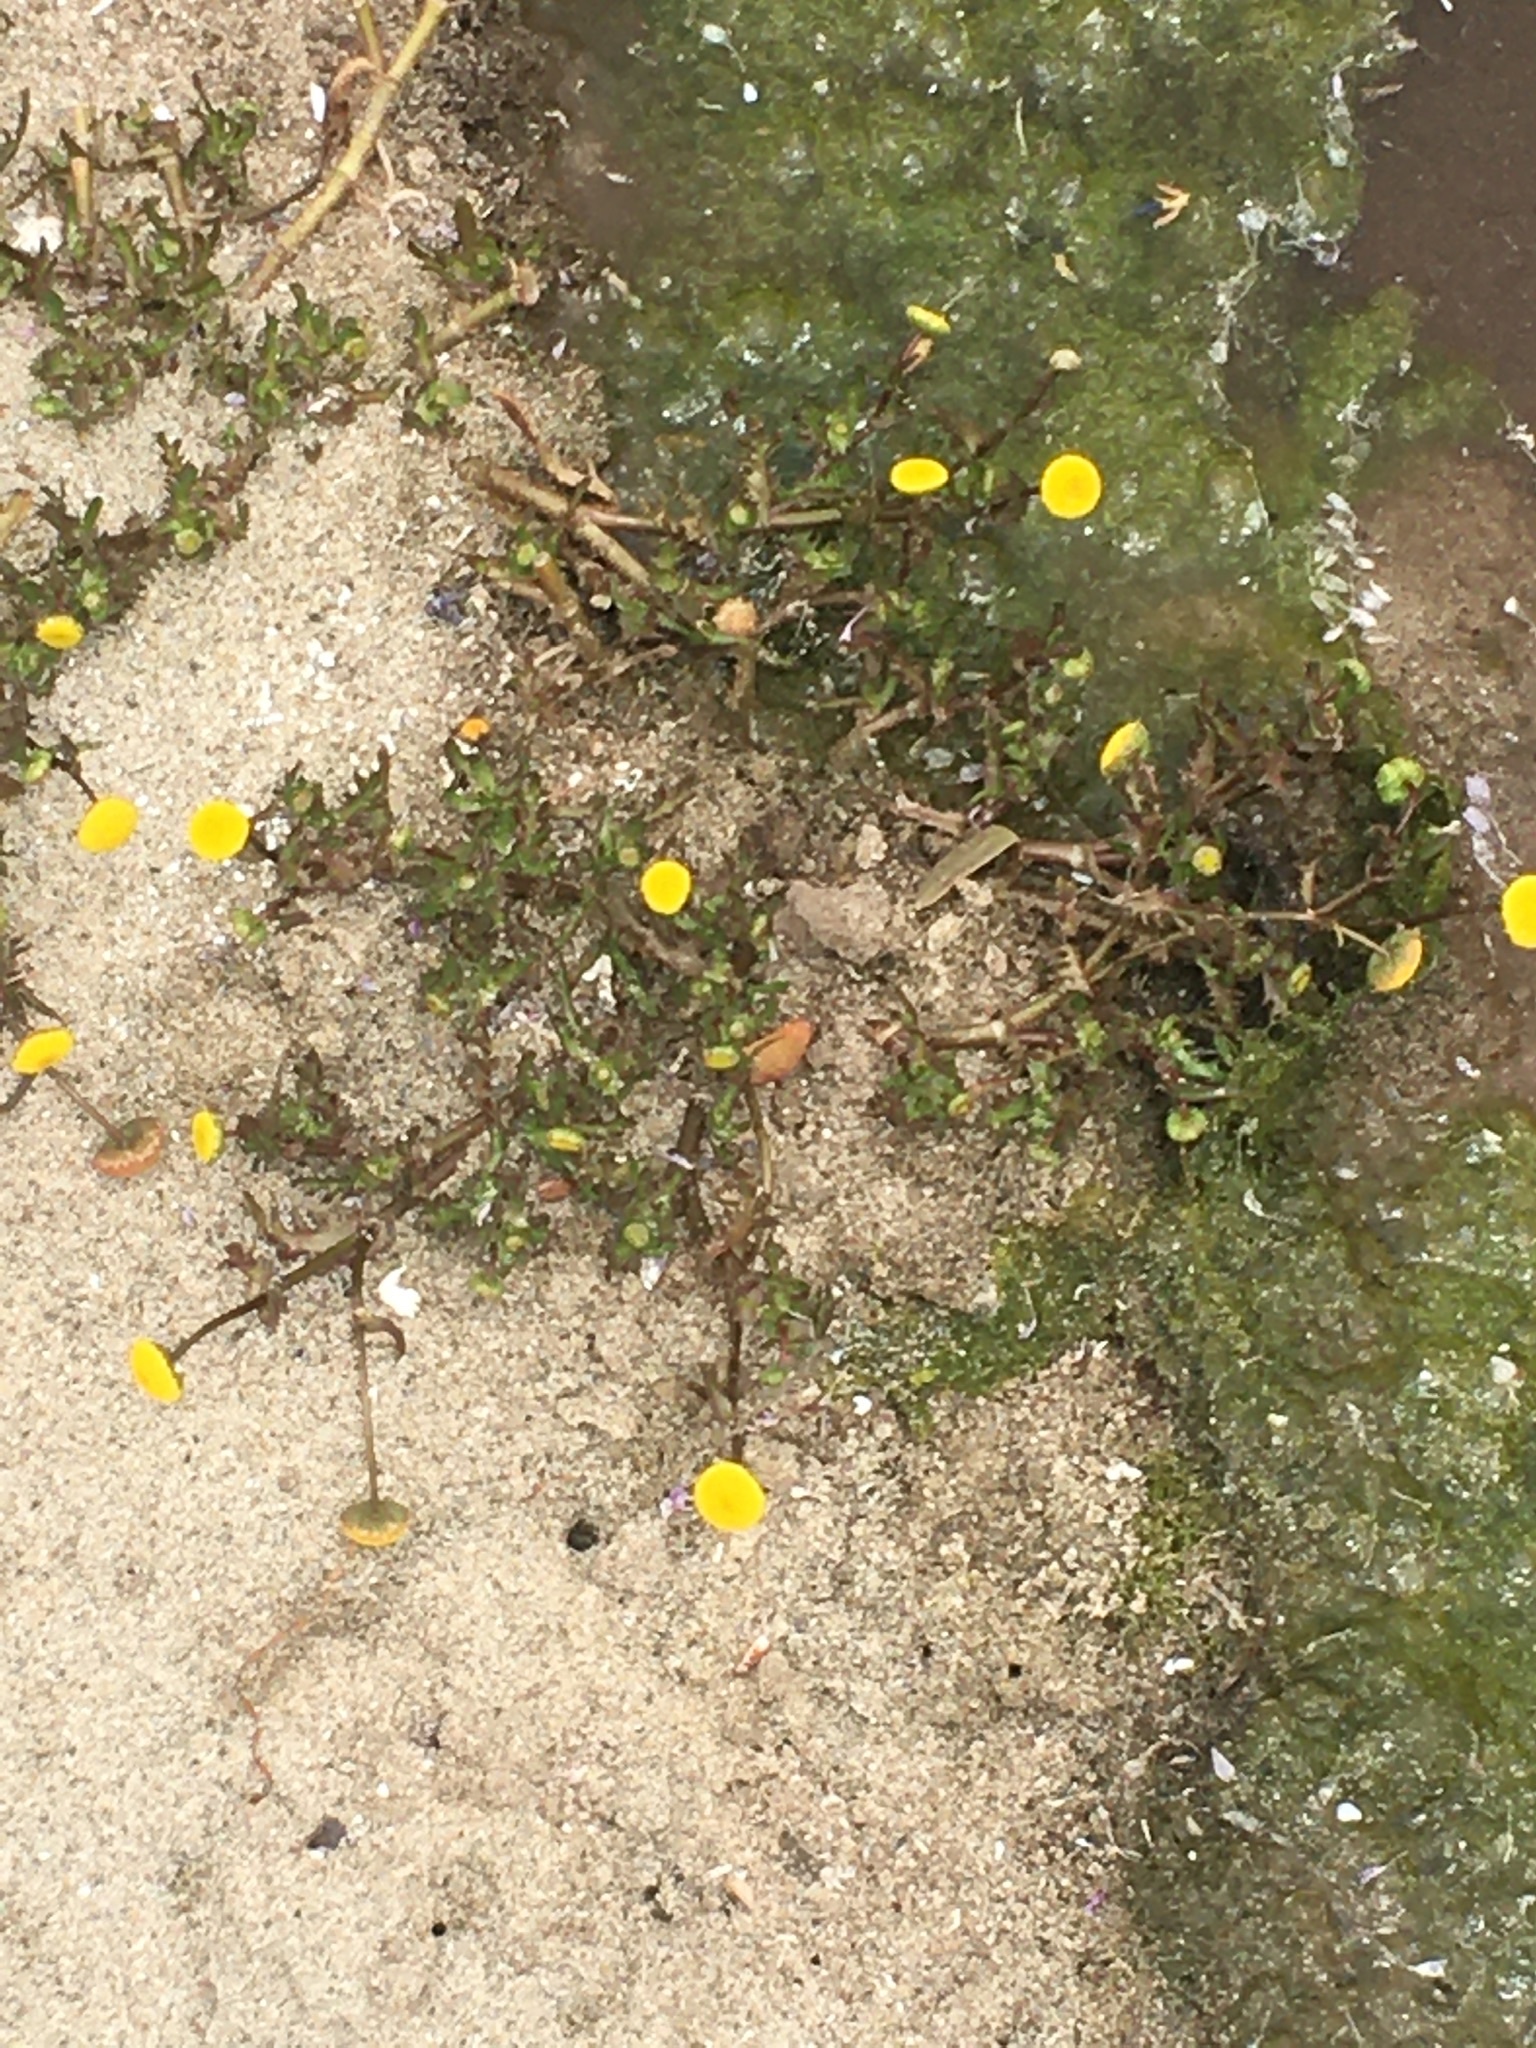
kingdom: Plantae
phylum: Tracheophyta
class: Magnoliopsida
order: Asterales
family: Asteraceae
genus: Cotula
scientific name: Cotula coronopifolia
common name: Buttonweed
